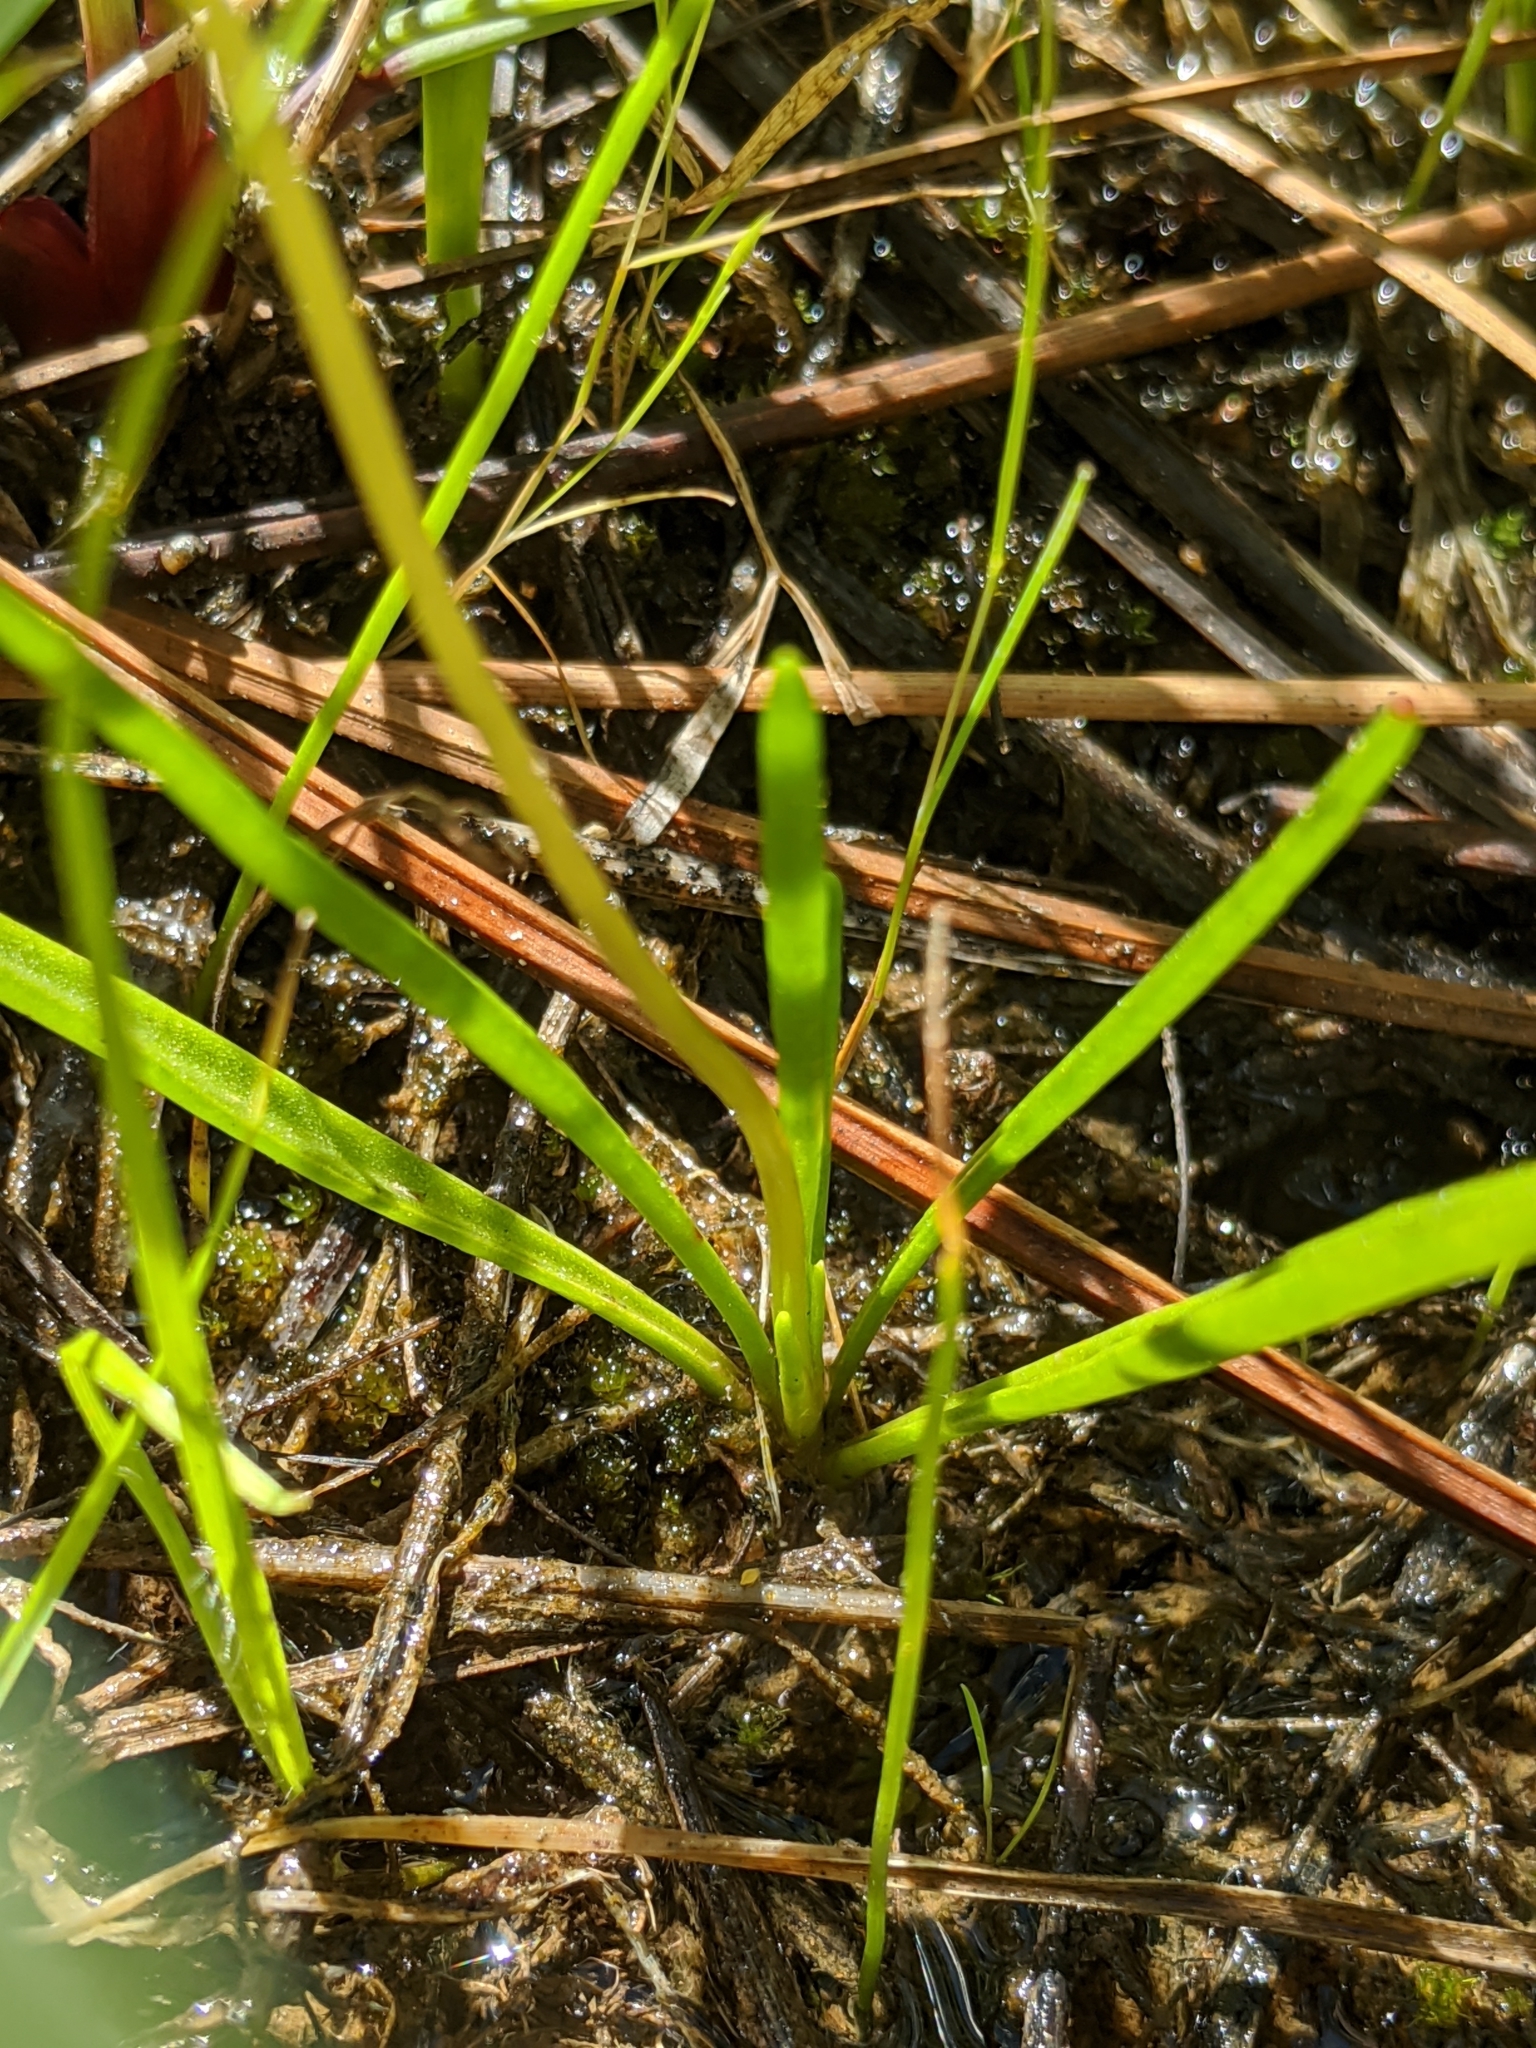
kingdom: Plantae
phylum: Tracheophyta
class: Magnoliopsida
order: Caryophyllales
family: Montiaceae
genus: Lewisia
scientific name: Lewisia nevadensis
